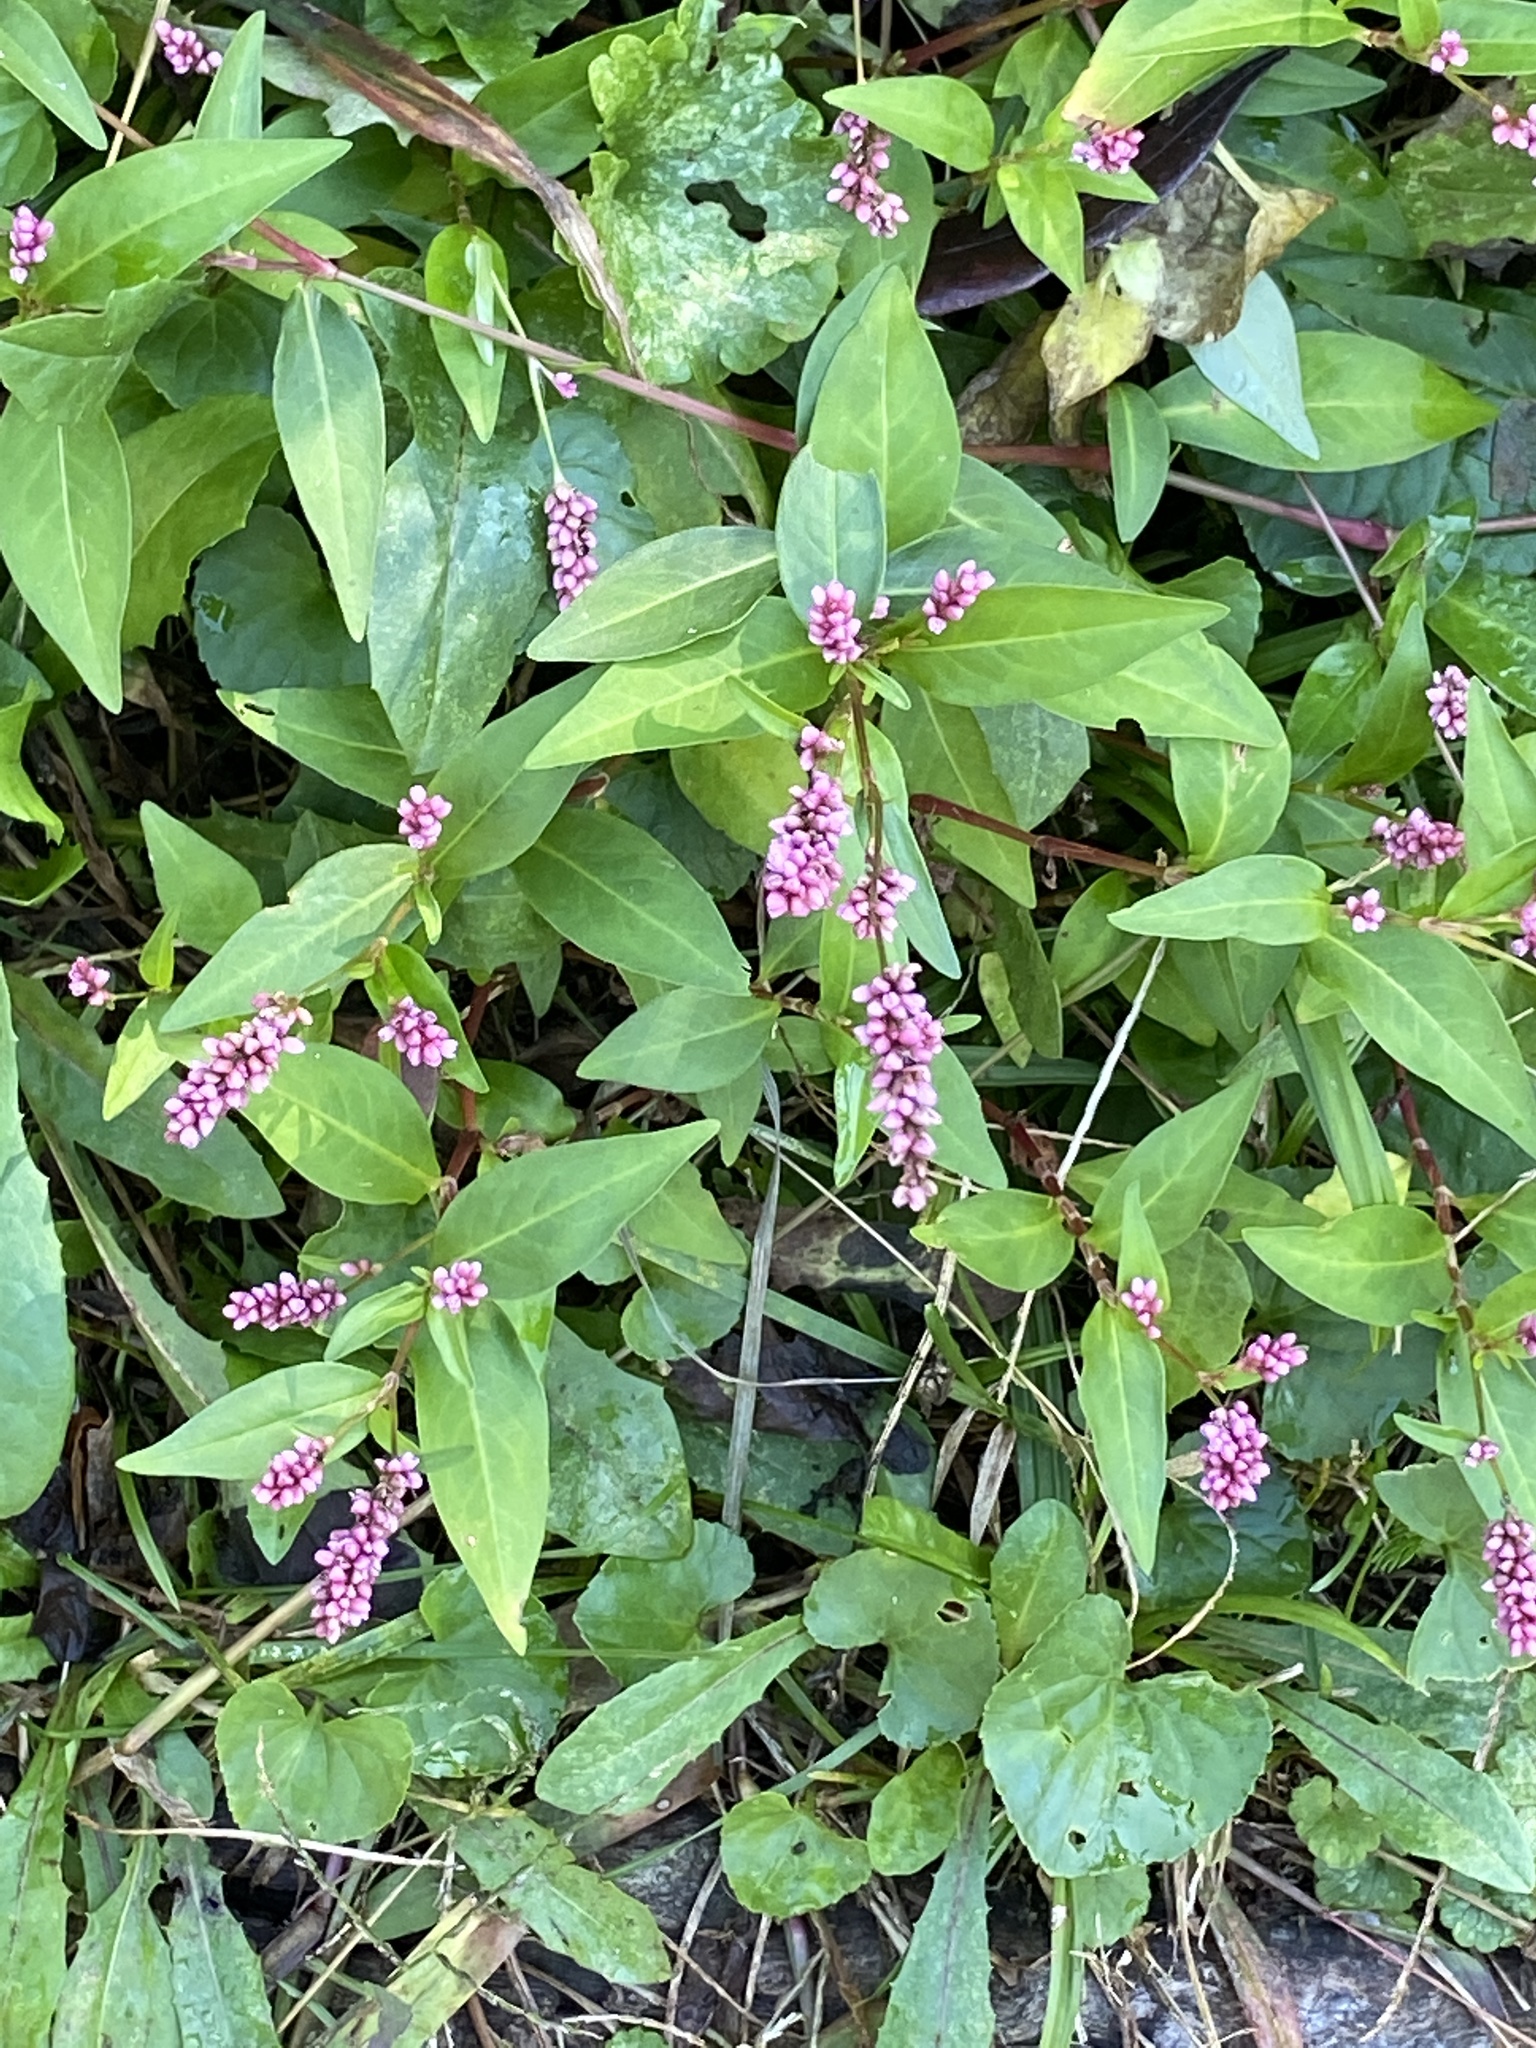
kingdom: Plantae
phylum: Tracheophyta
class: Magnoliopsida
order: Caryophyllales
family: Polygonaceae
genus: Persicaria
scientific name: Persicaria longiseta
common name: Bristly lady's-thumb
